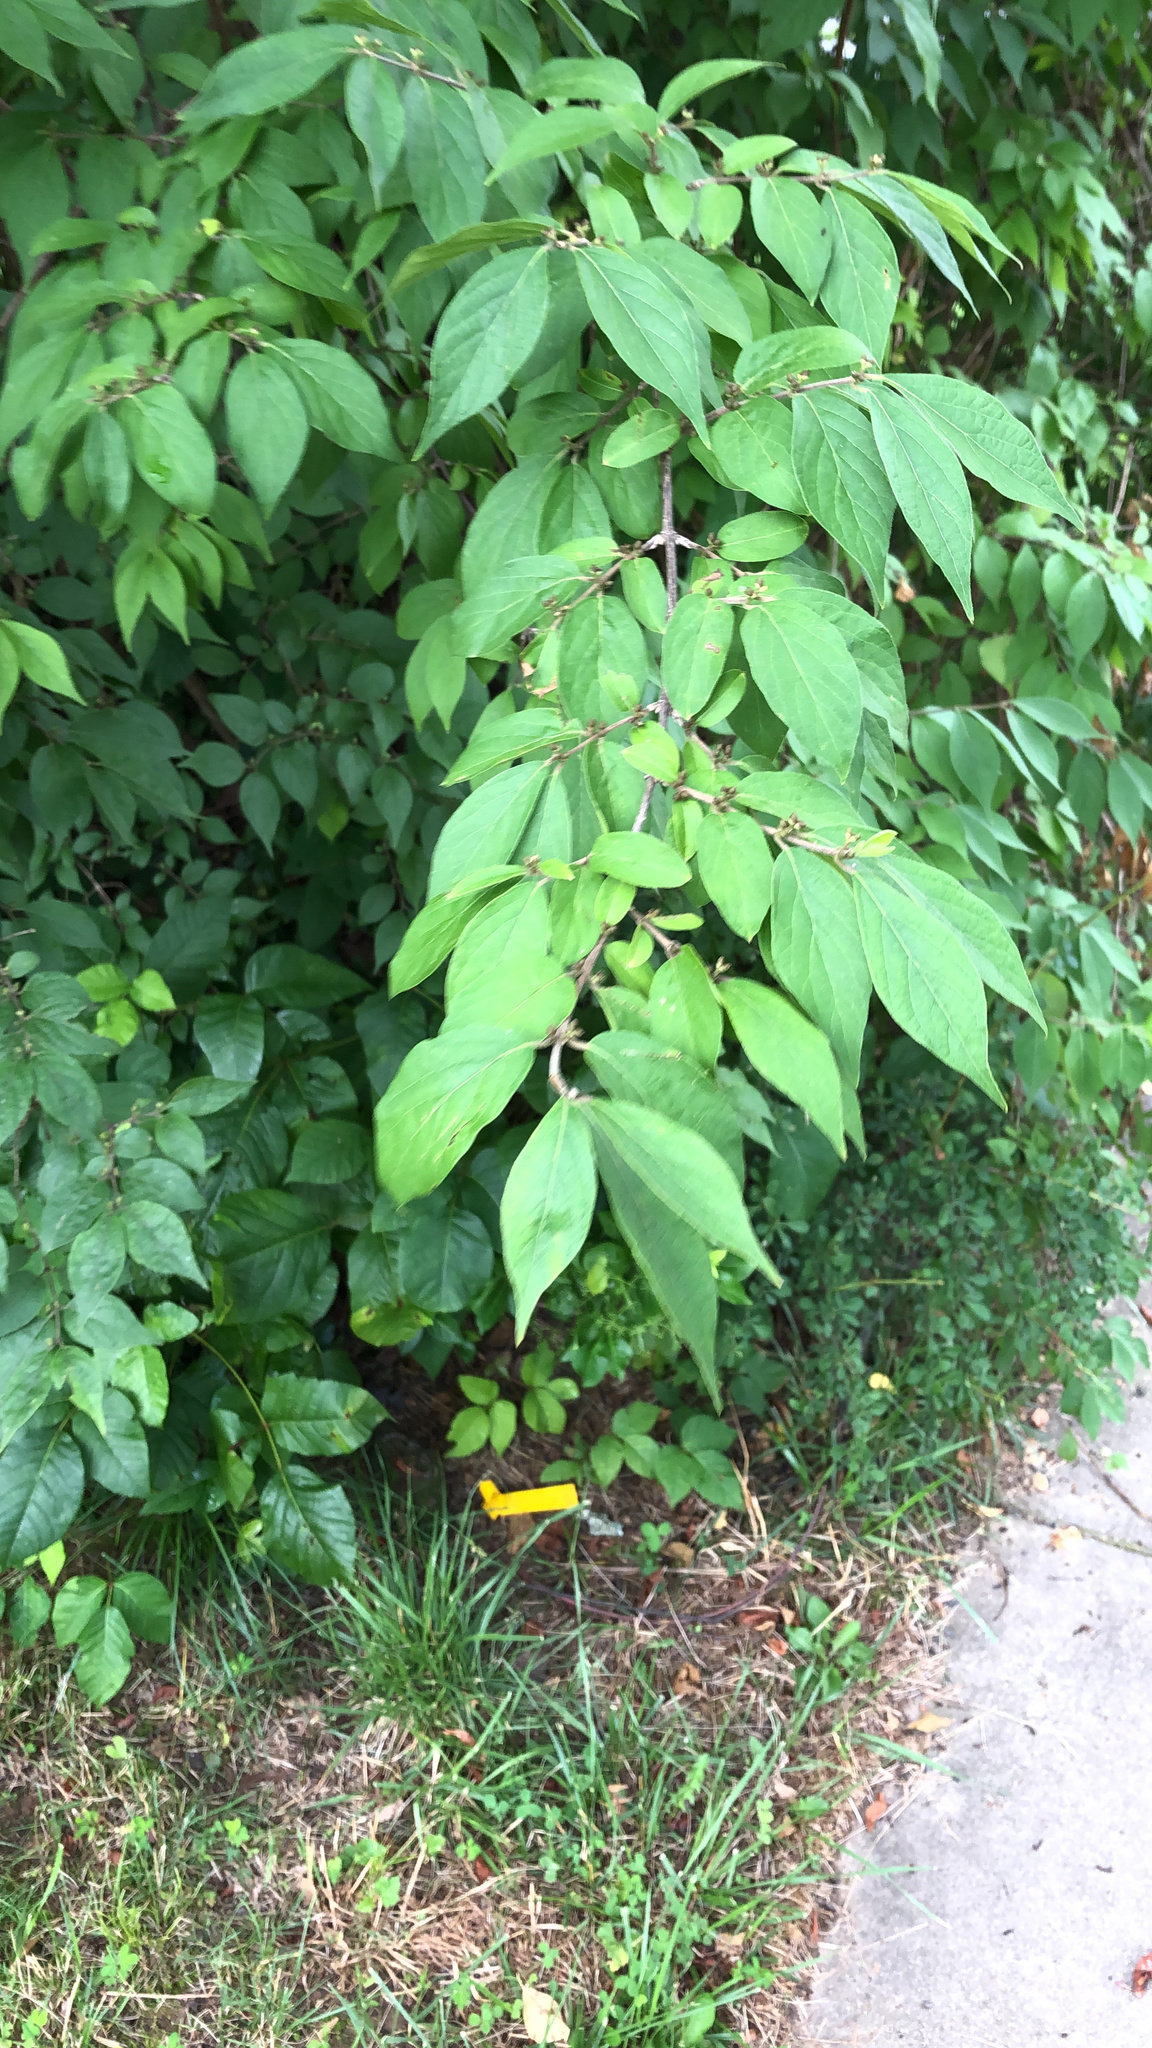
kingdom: Plantae
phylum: Tracheophyta
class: Magnoliopsida
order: Dipsacales
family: Caprifoliaceae
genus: Lonicera
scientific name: Lonicera maackii
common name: Amur honeysuckle
